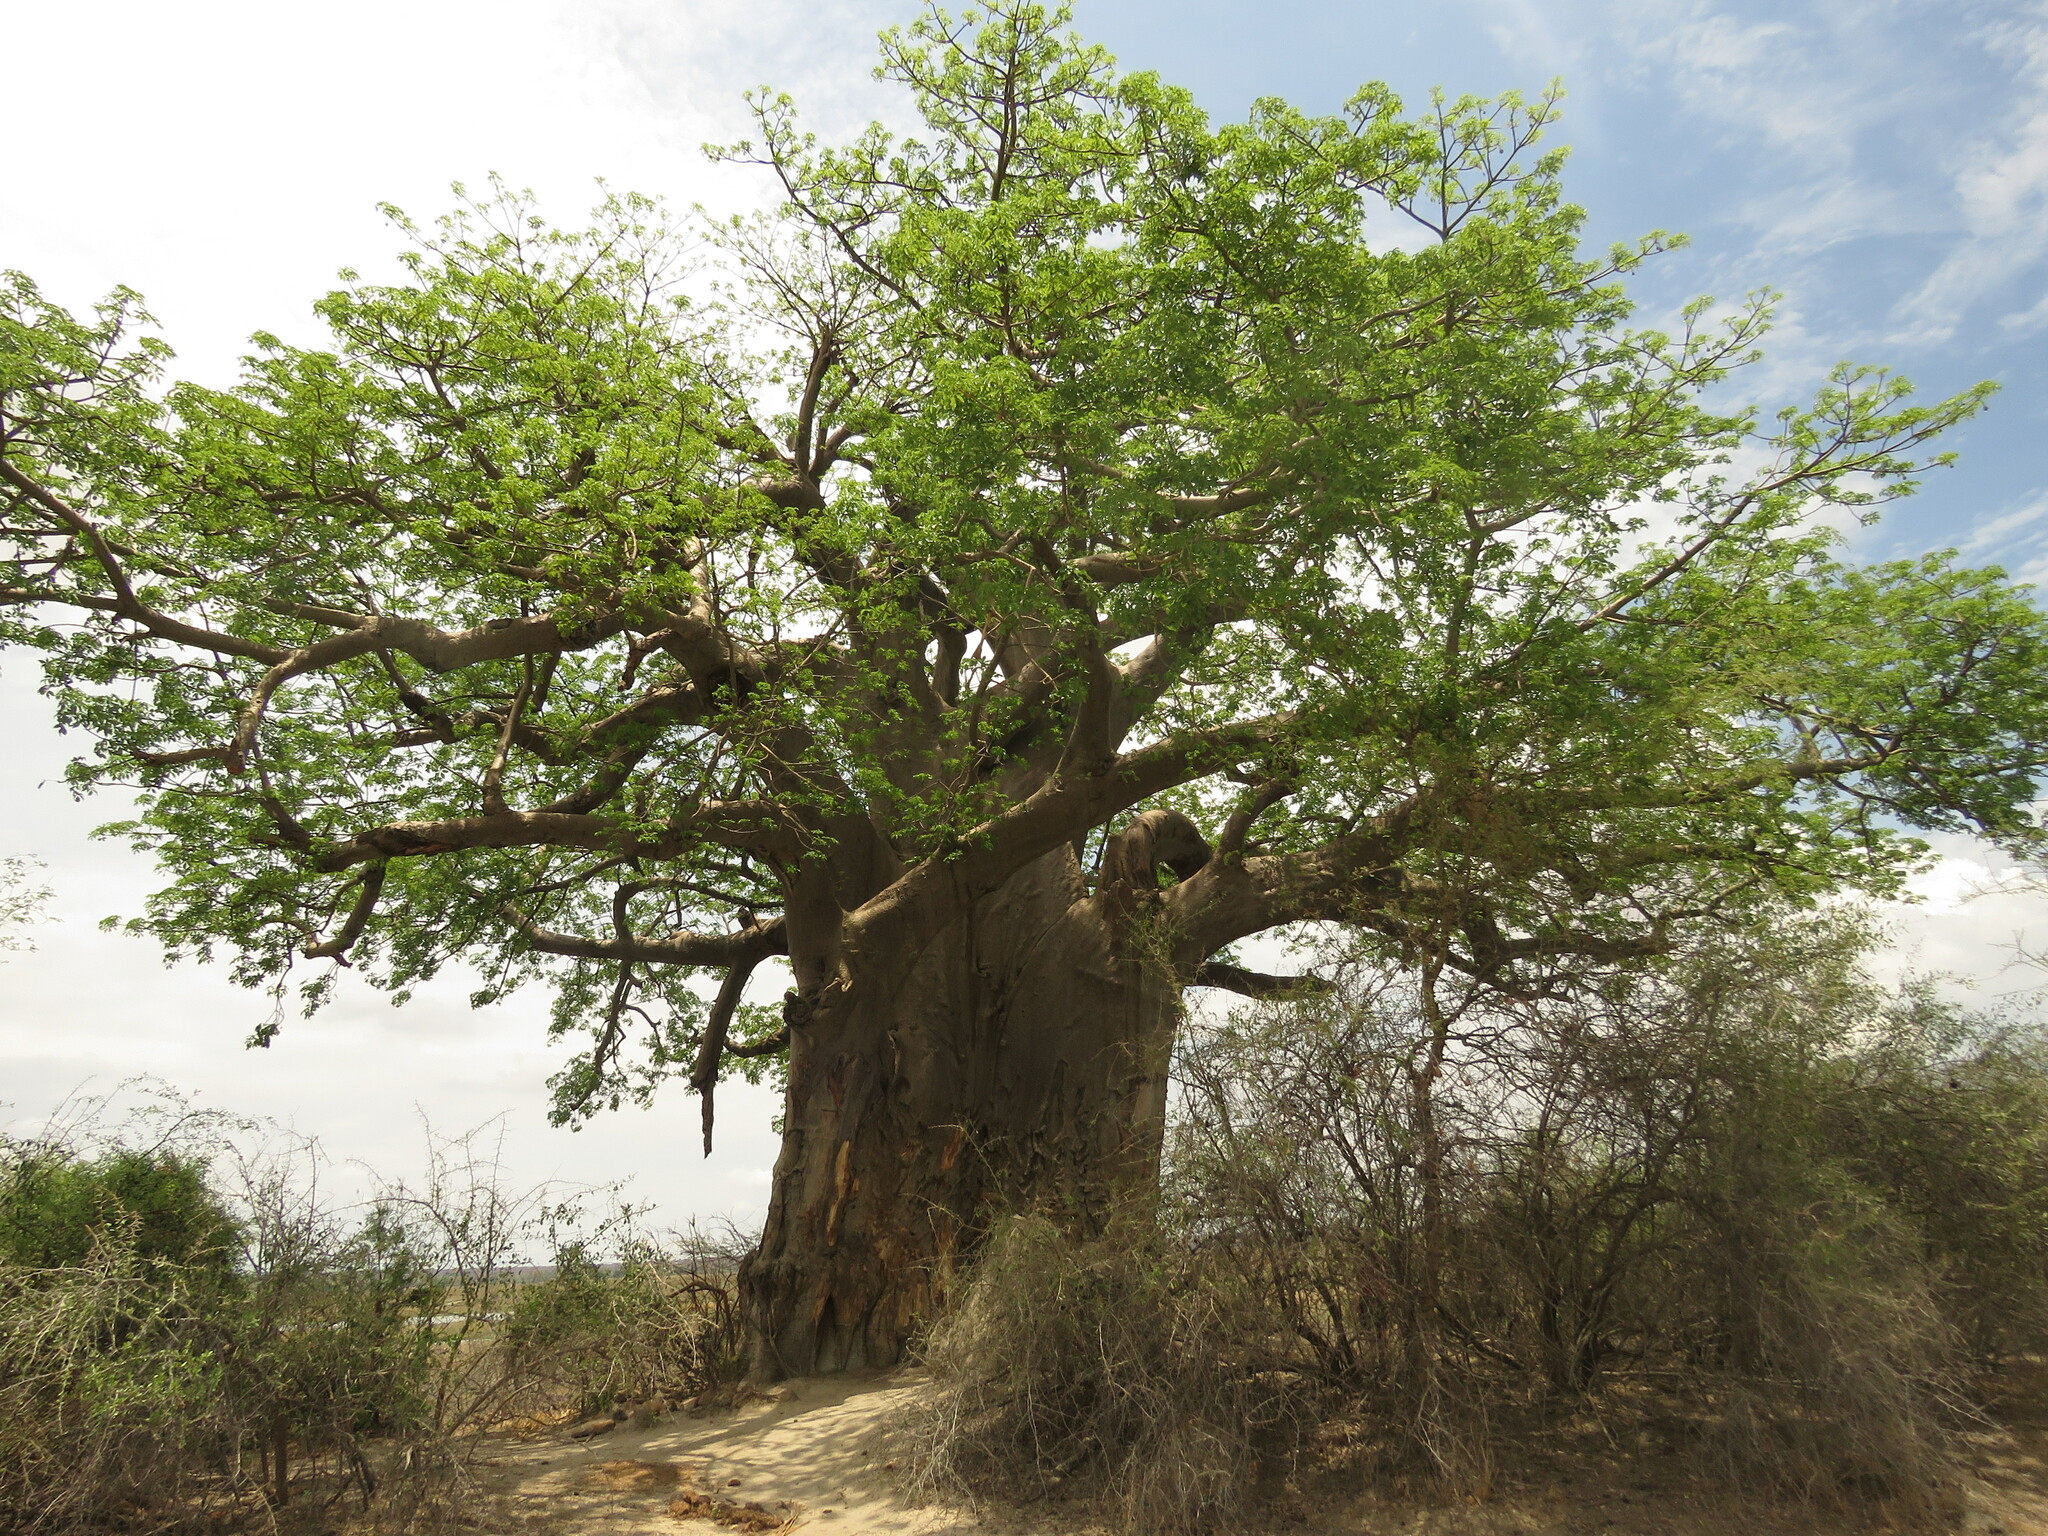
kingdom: Plantae
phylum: Tracheophyta
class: Magnoliopsida
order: Malvales
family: Malvaceae
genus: Adansonia
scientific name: Adansonia digitata
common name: Dead-rat-tree
